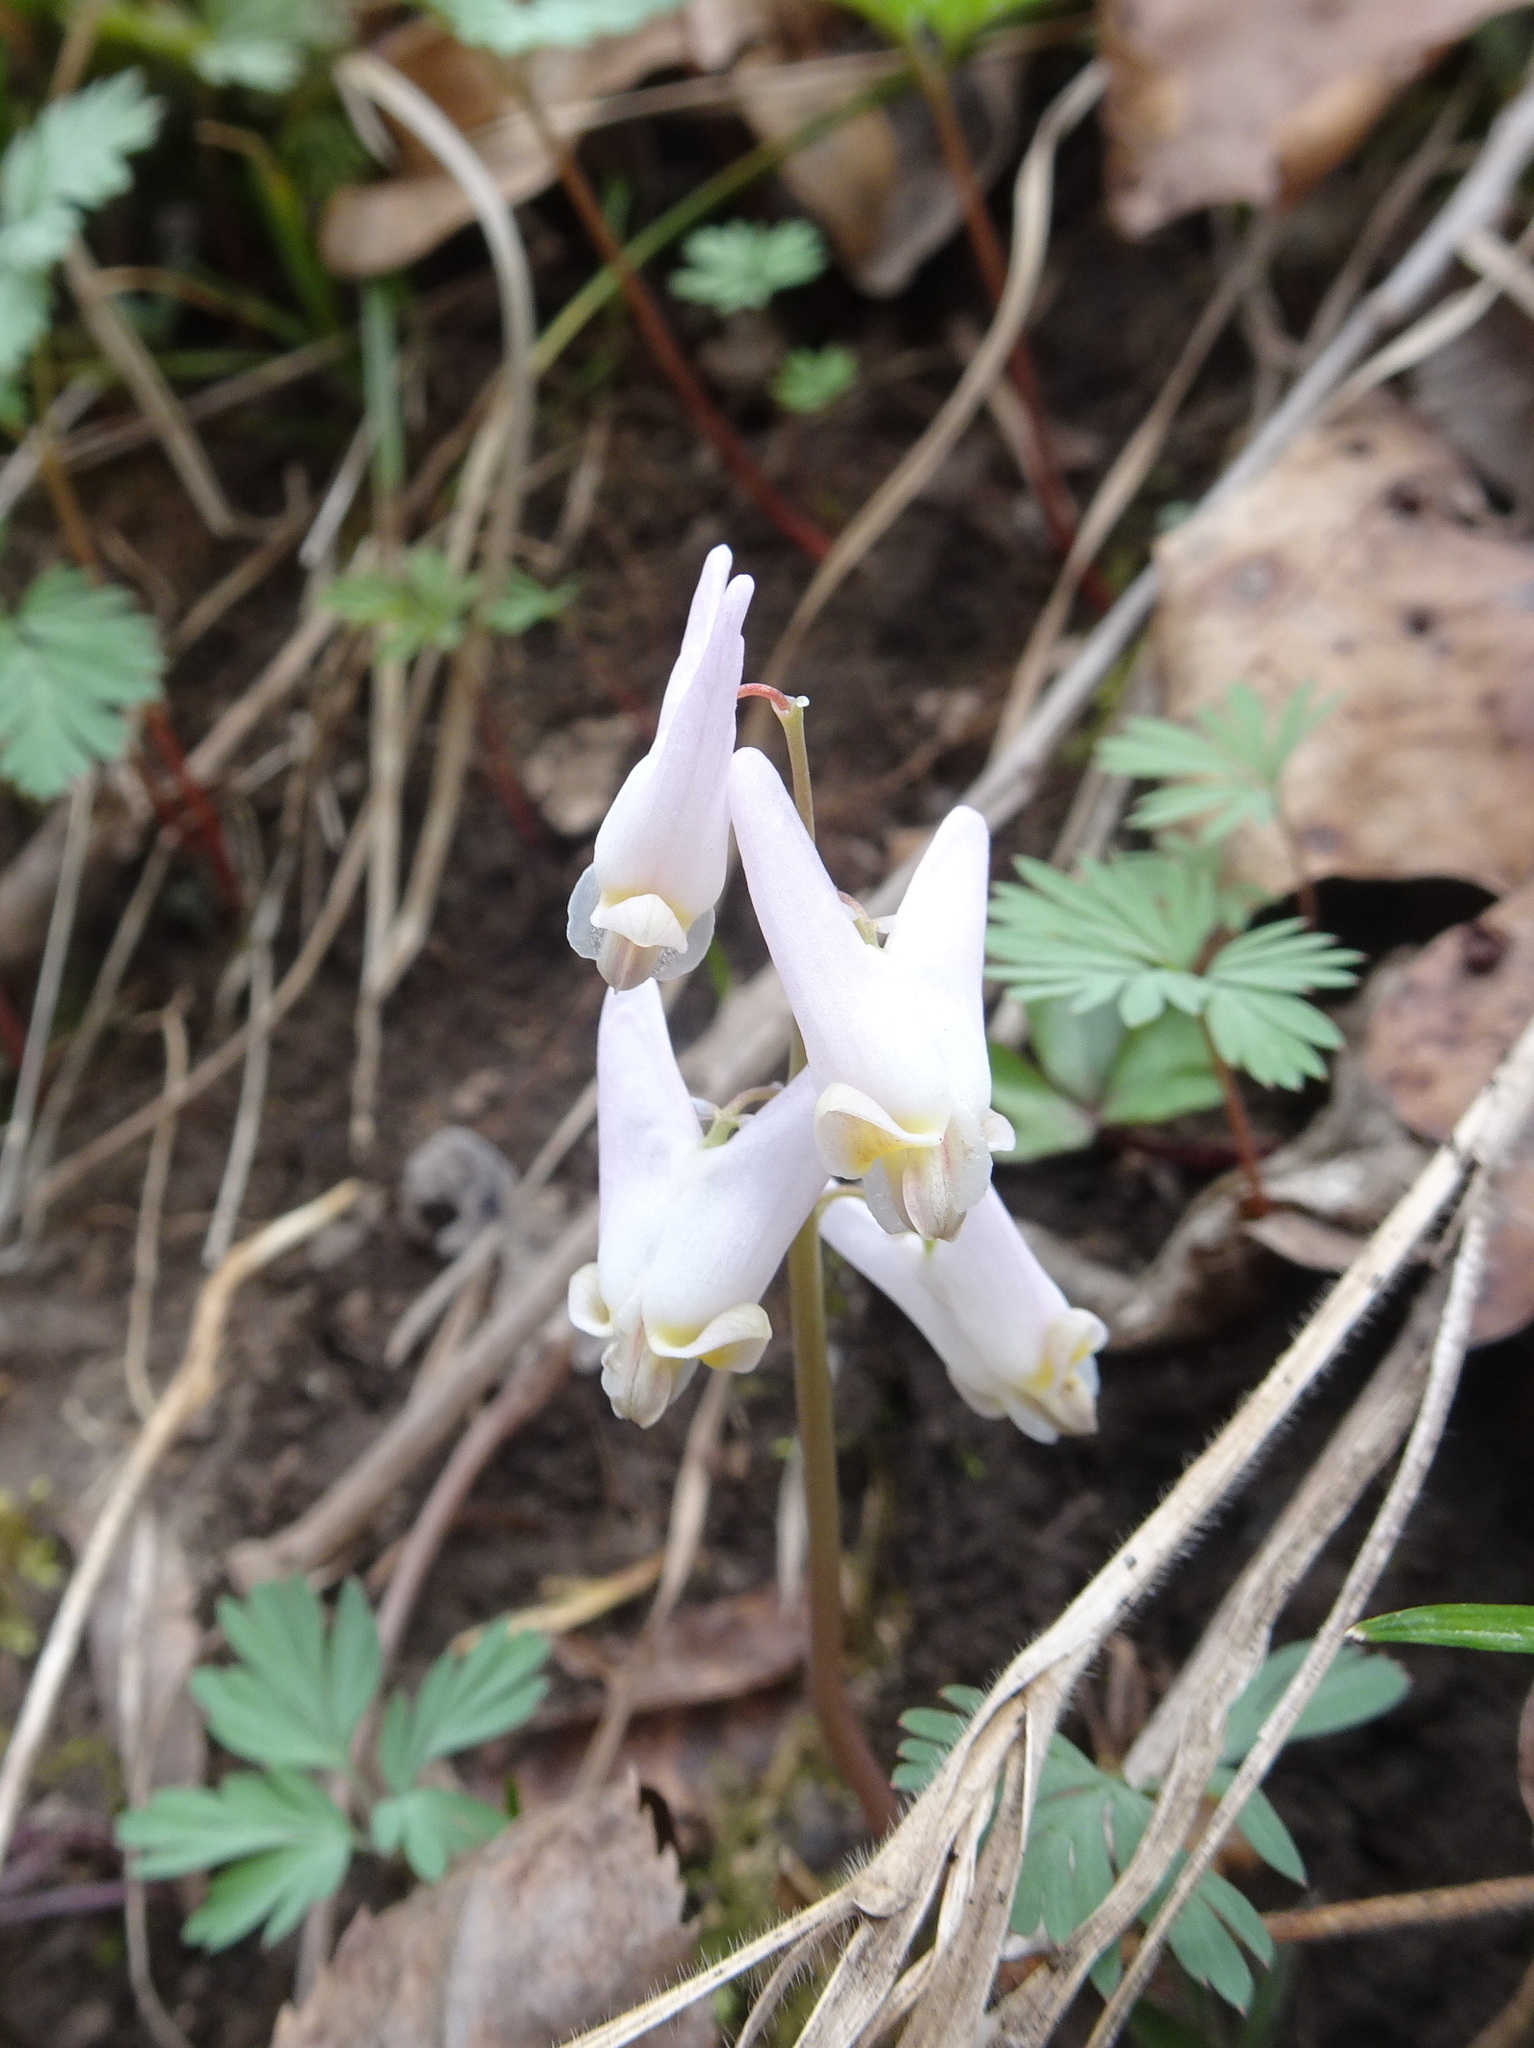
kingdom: Plantae
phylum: Tracheophyta
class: Magnoliopsida
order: Ranunculales
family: Papaveraceae
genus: Dicentra
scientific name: Dicentra cucullaria
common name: Dutchman's breeches
